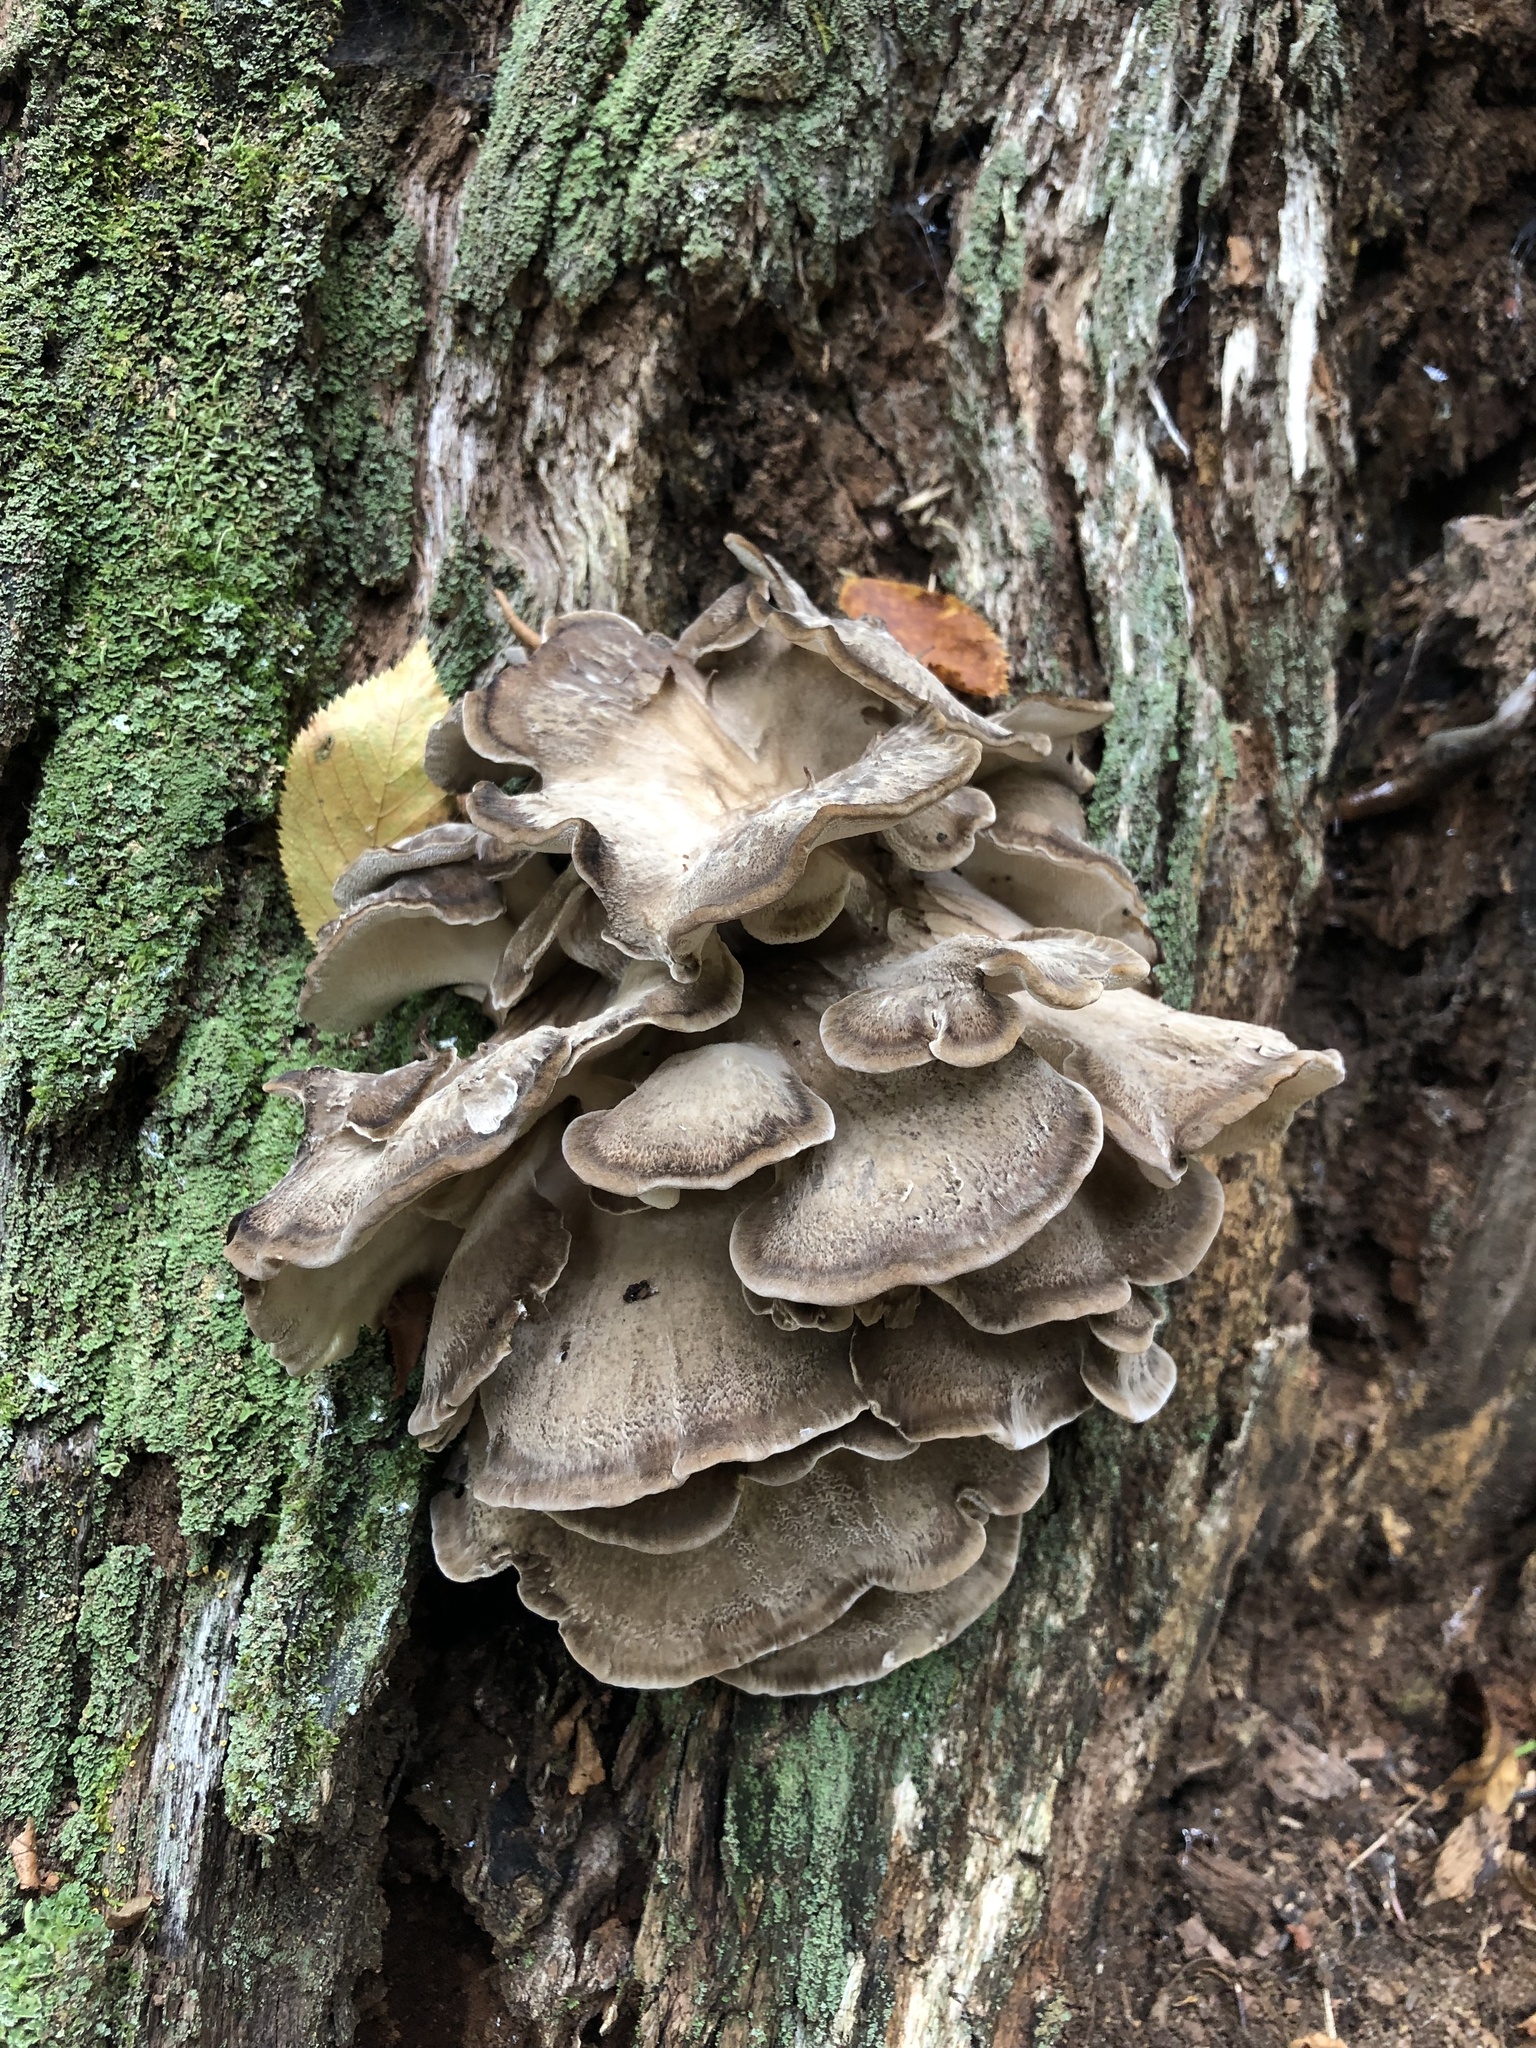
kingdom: Fungi
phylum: Basidiomycota
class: Agaricomycetes
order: Polyporales
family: Grifolaceae
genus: Grifola
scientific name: Grifola frondosa
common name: Hen of the woods
